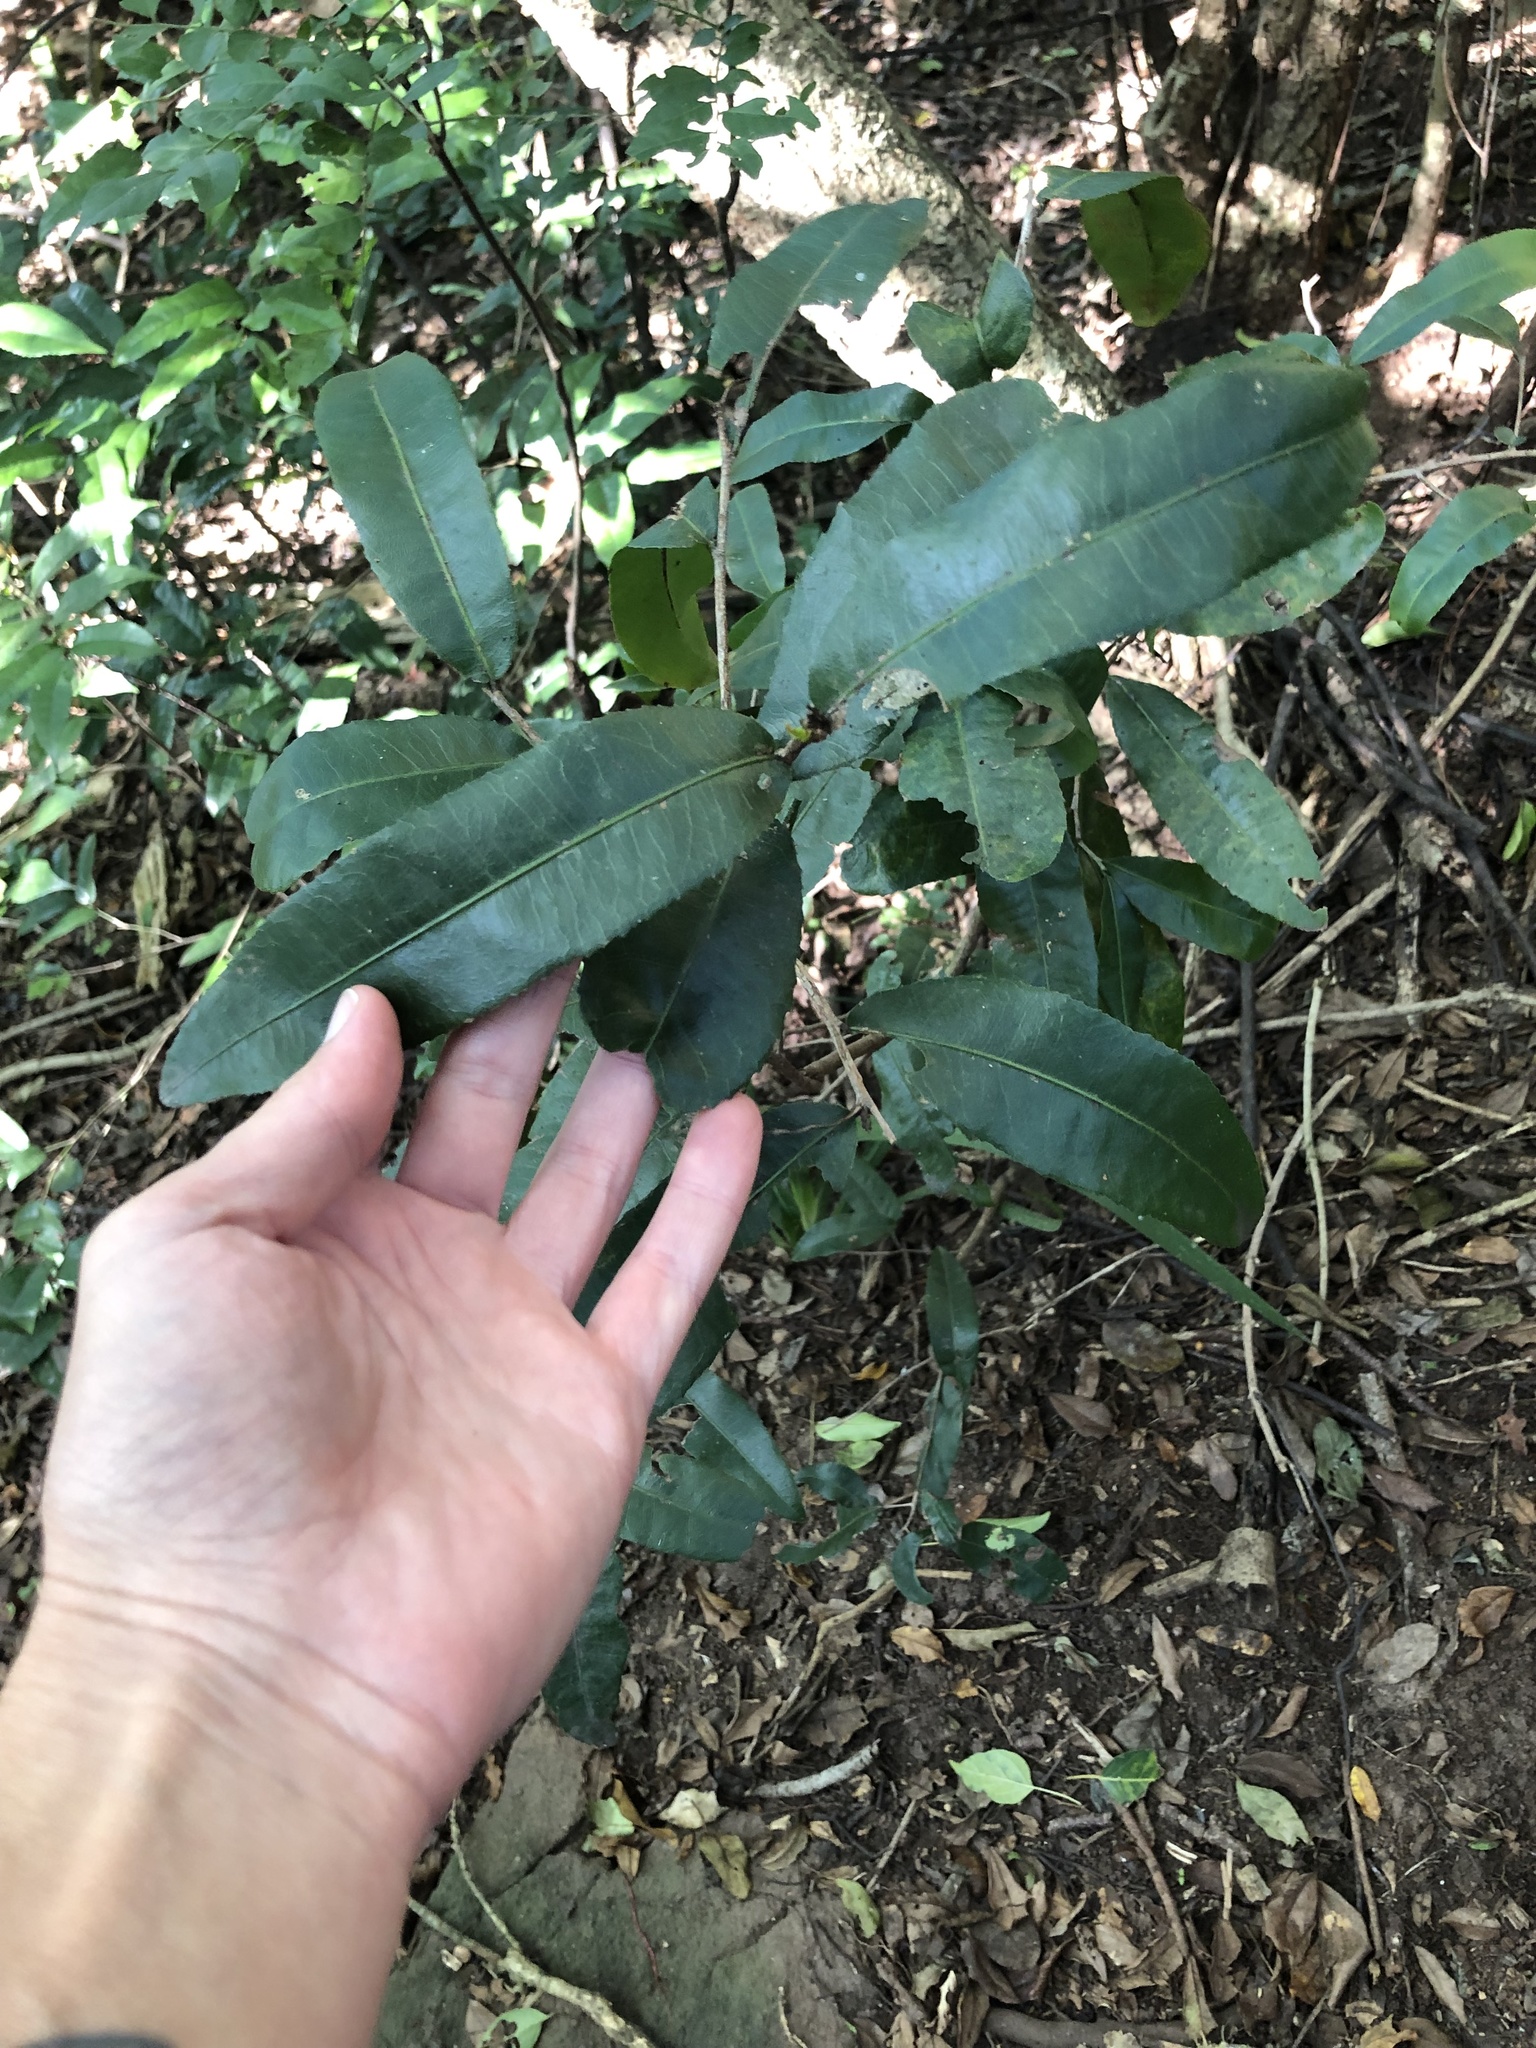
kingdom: Plantae
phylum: Tracheophyta
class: Magnoliopsida
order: Malpighiales
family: Ochnaceae
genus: Ochna
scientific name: Ochna natalitia
